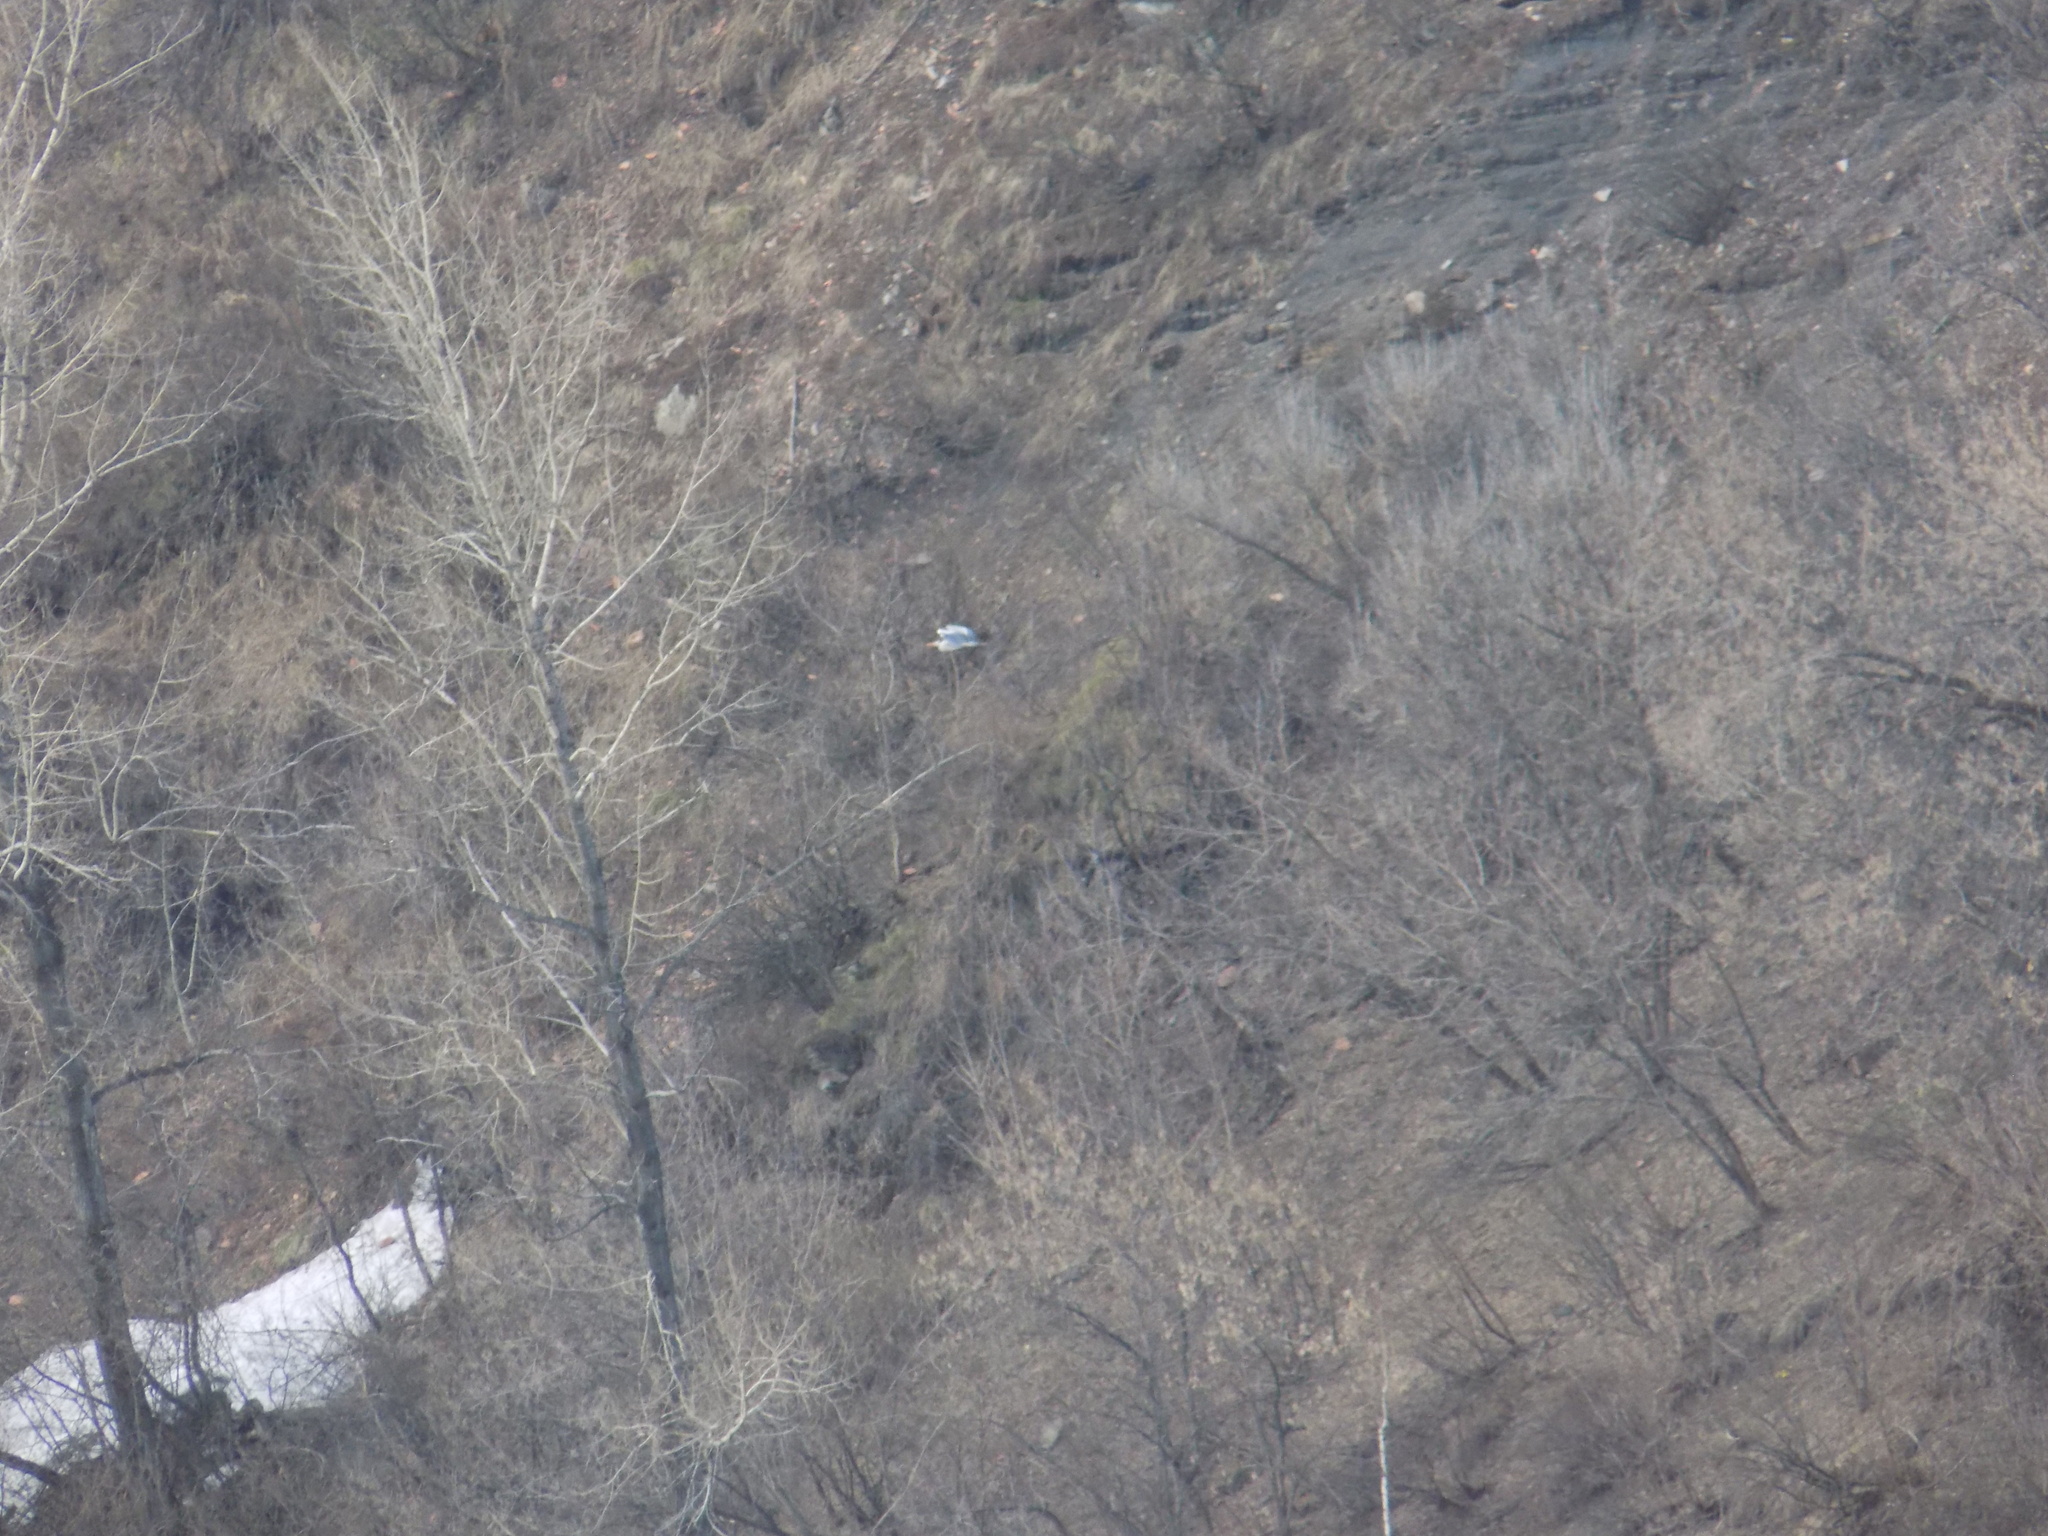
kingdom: Animalia
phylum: Chordata
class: Aves
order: Pelecaniformes
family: Ardeidae
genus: Ardea
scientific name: Ardea cinerea
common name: Grey heron
